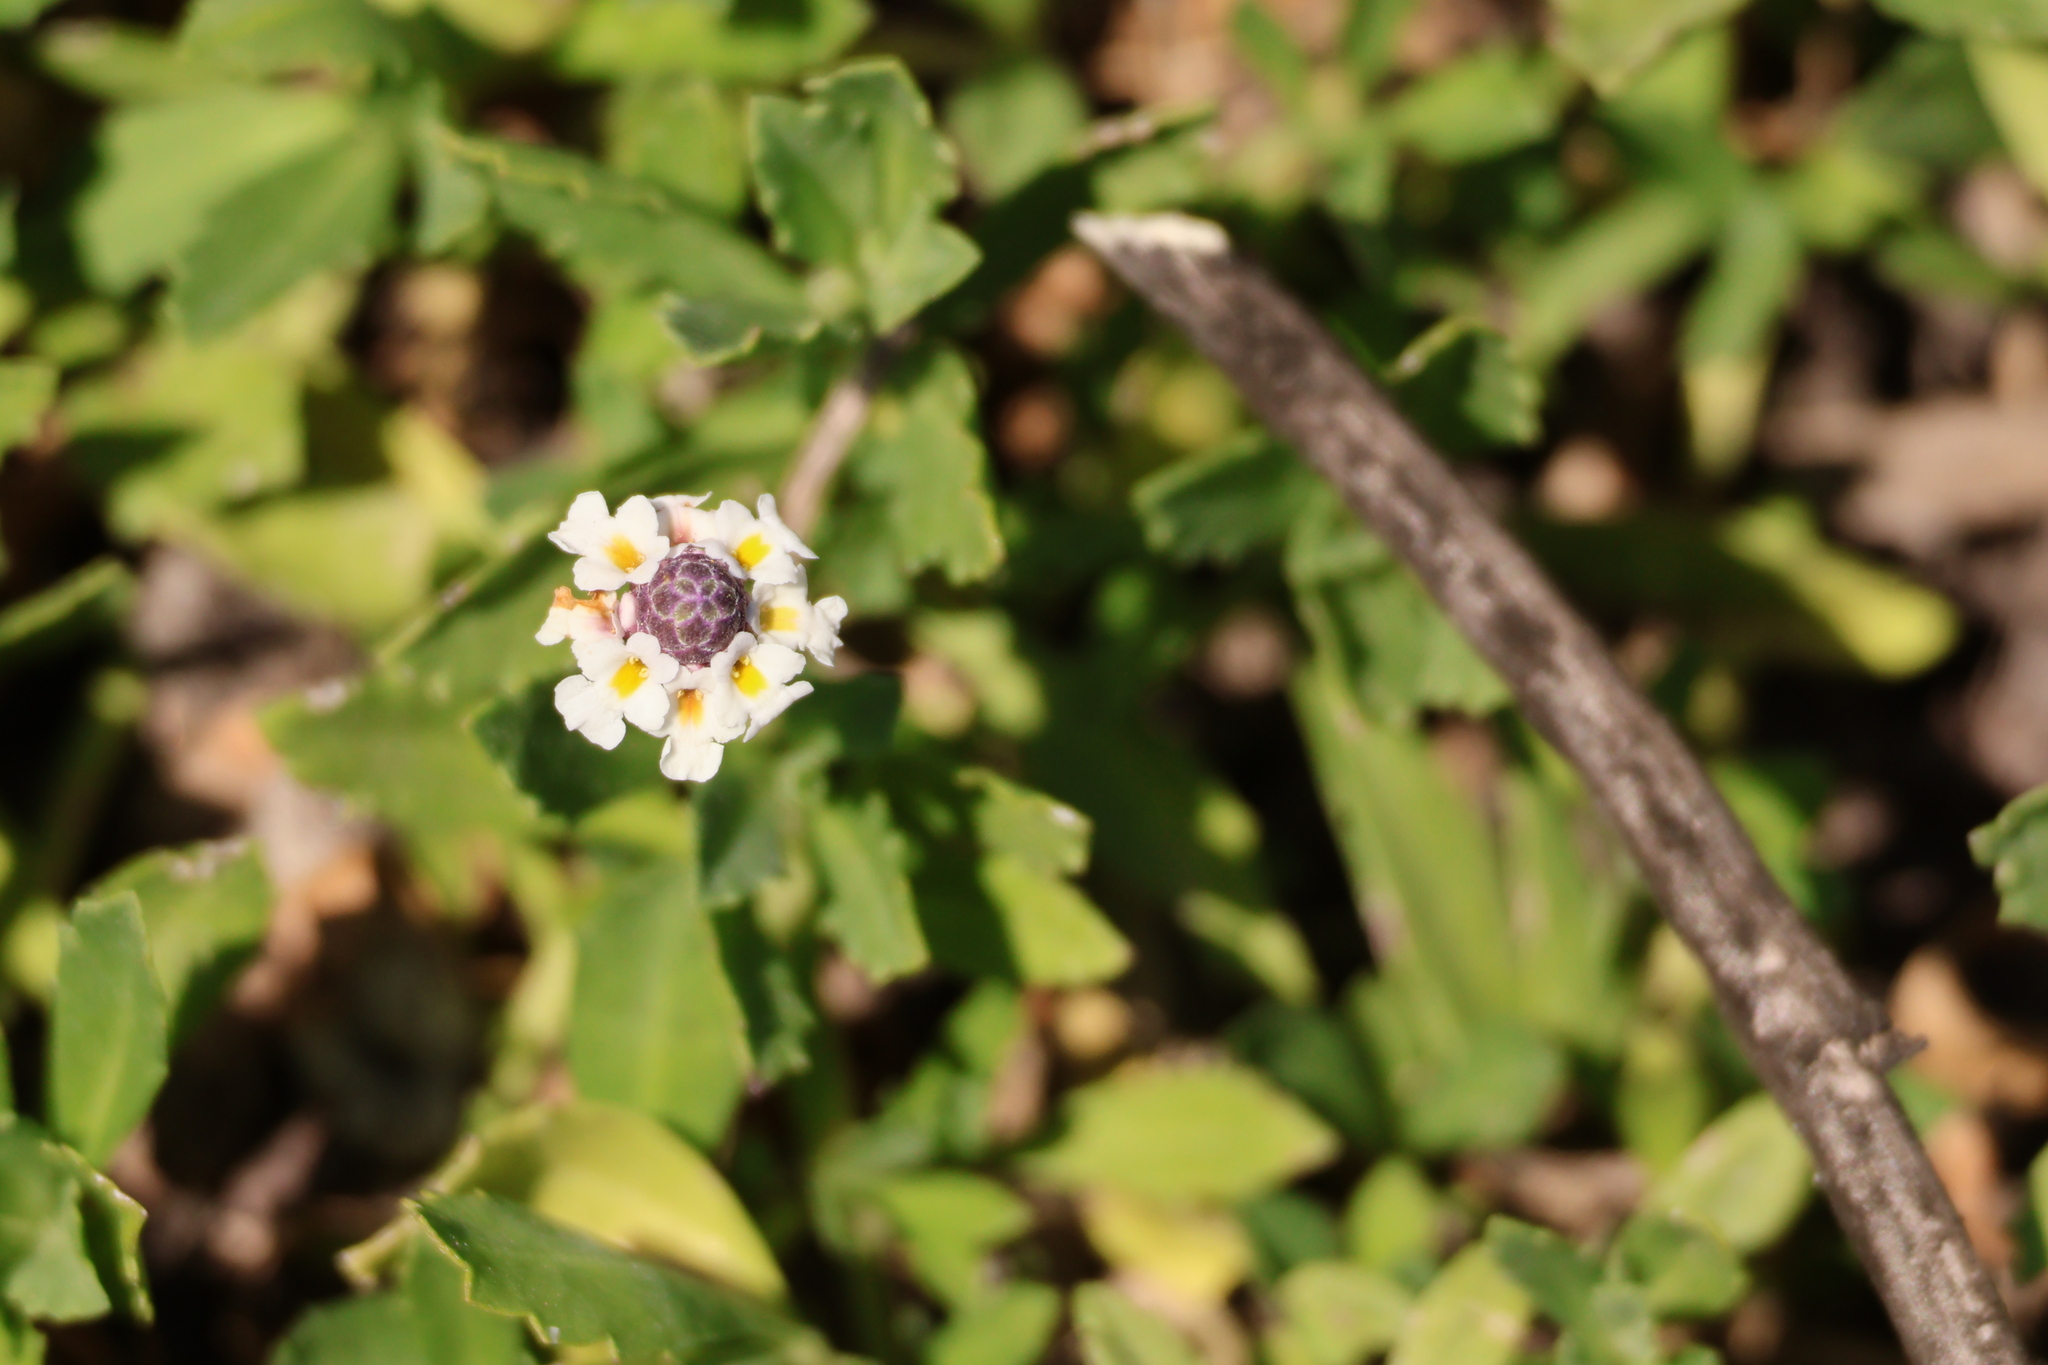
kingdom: Plantae
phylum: Tracheophyta
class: Magnoliopsida
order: Lamiales
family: Verbenaceae
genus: Phyla
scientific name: Phyla nodiflora
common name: Frogfruit
